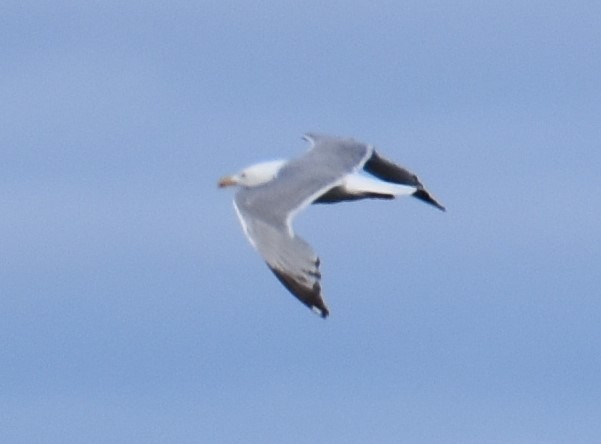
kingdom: Animalia
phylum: Chordata
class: Aves
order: Charadriiformes
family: Laridae
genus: Larus
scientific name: Larus argentatus
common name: Herring gull
